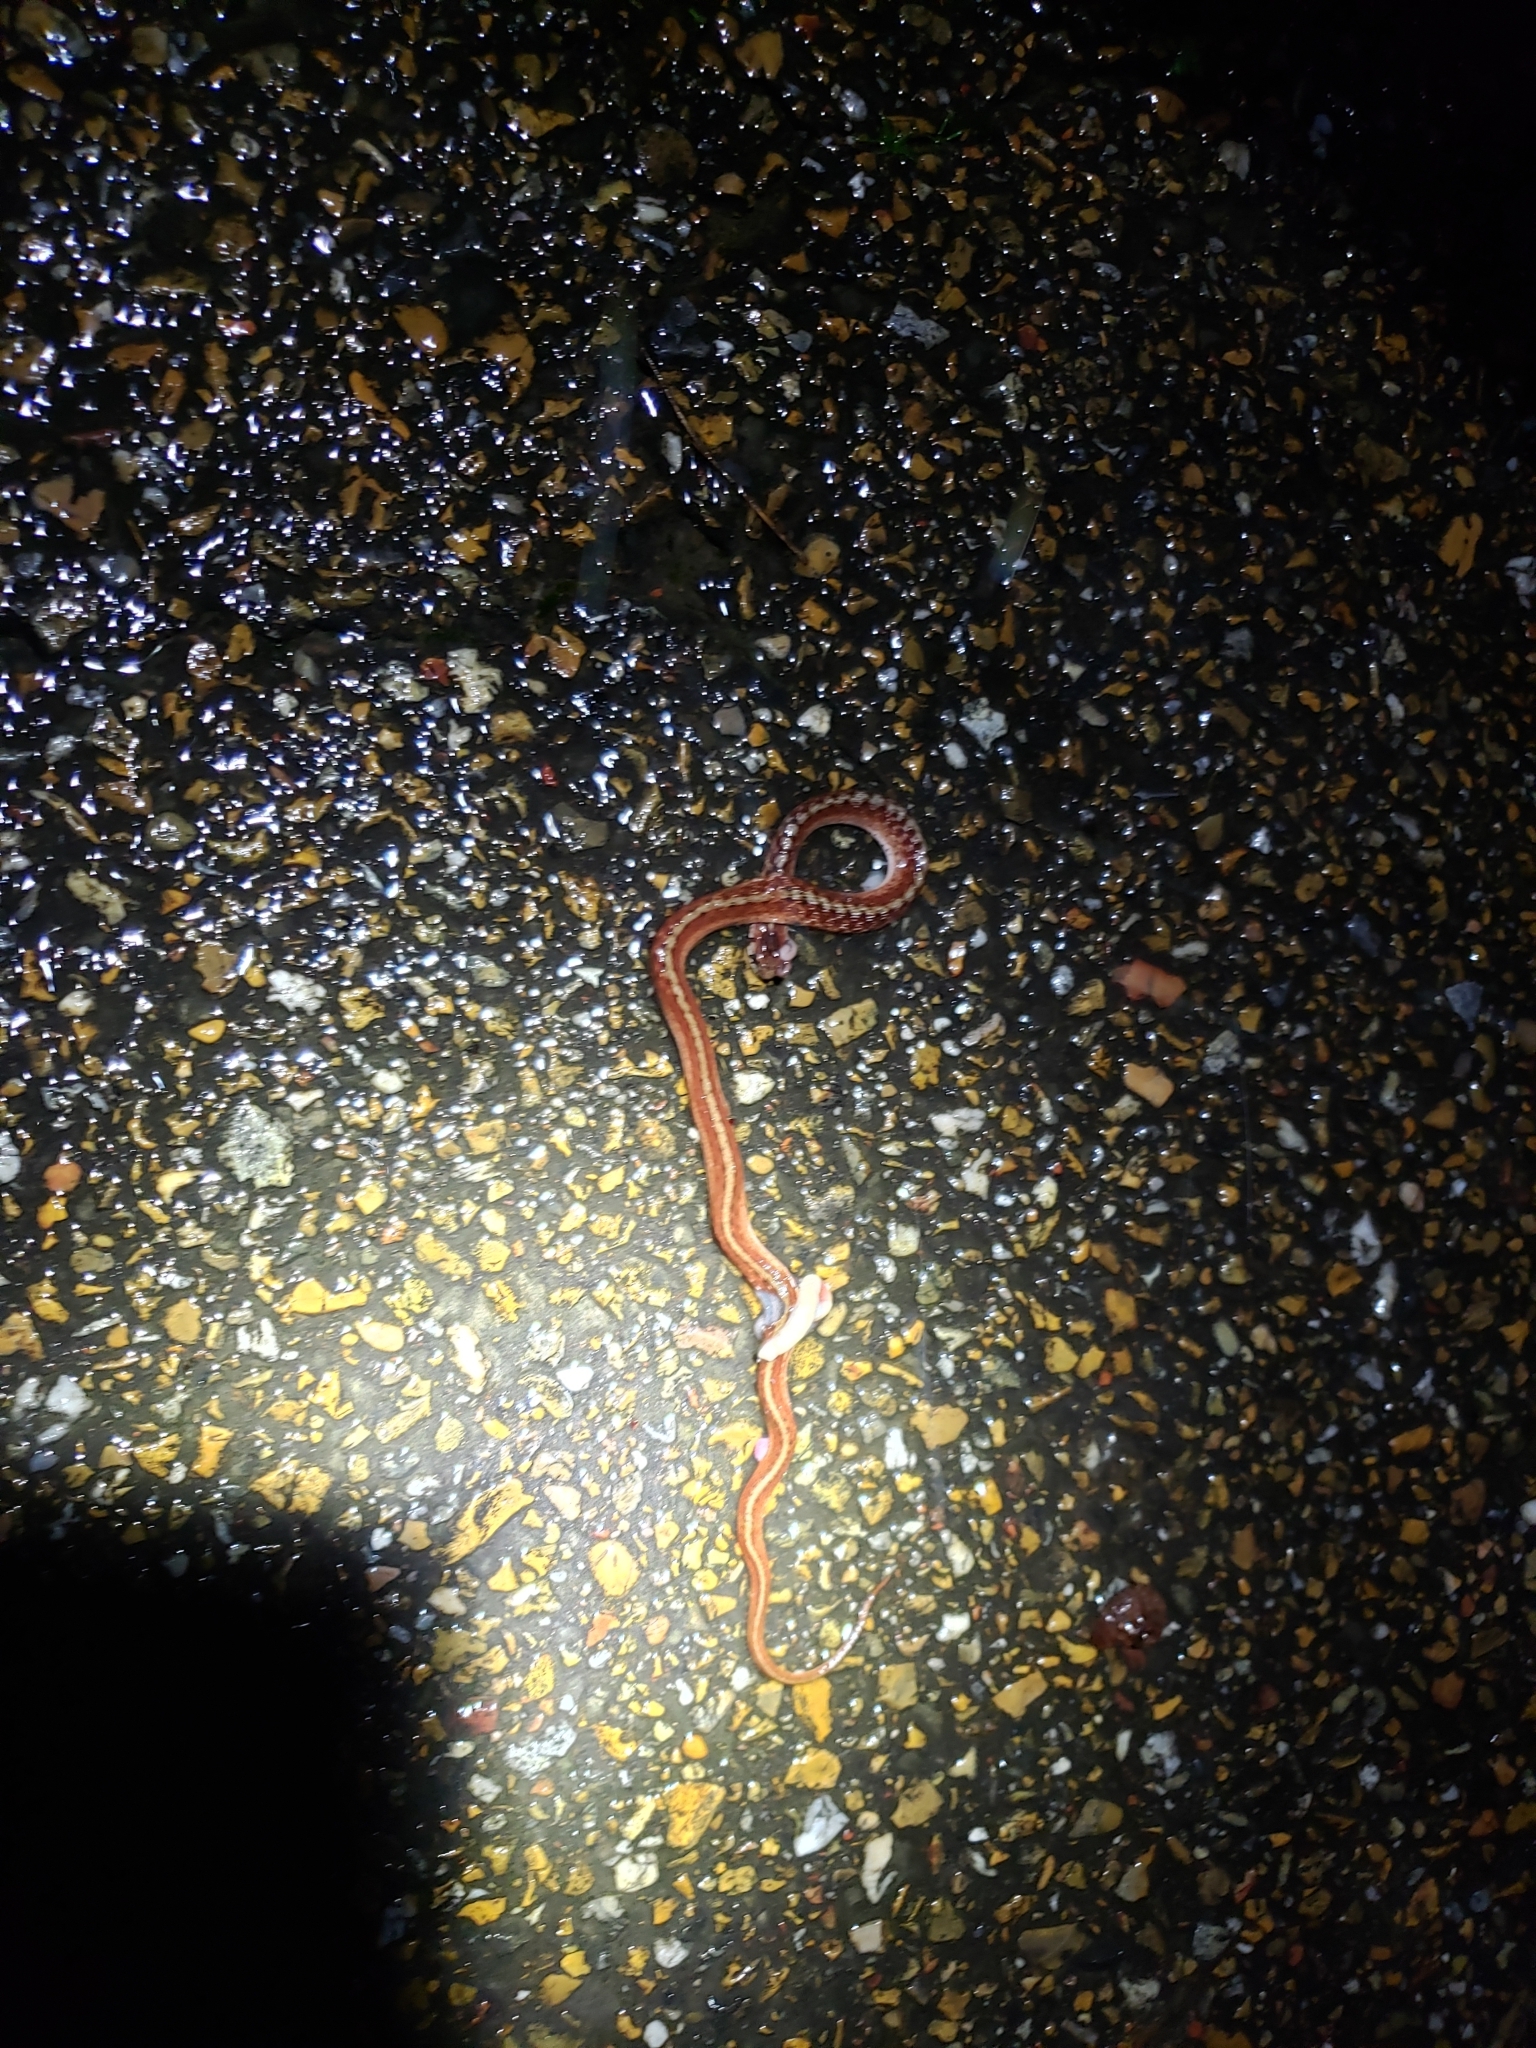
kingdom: Animalia
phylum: Chordata
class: Squamata
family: Colubridae
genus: Storeria
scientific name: Storeria dekayi
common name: (dekay’s) brown snake
